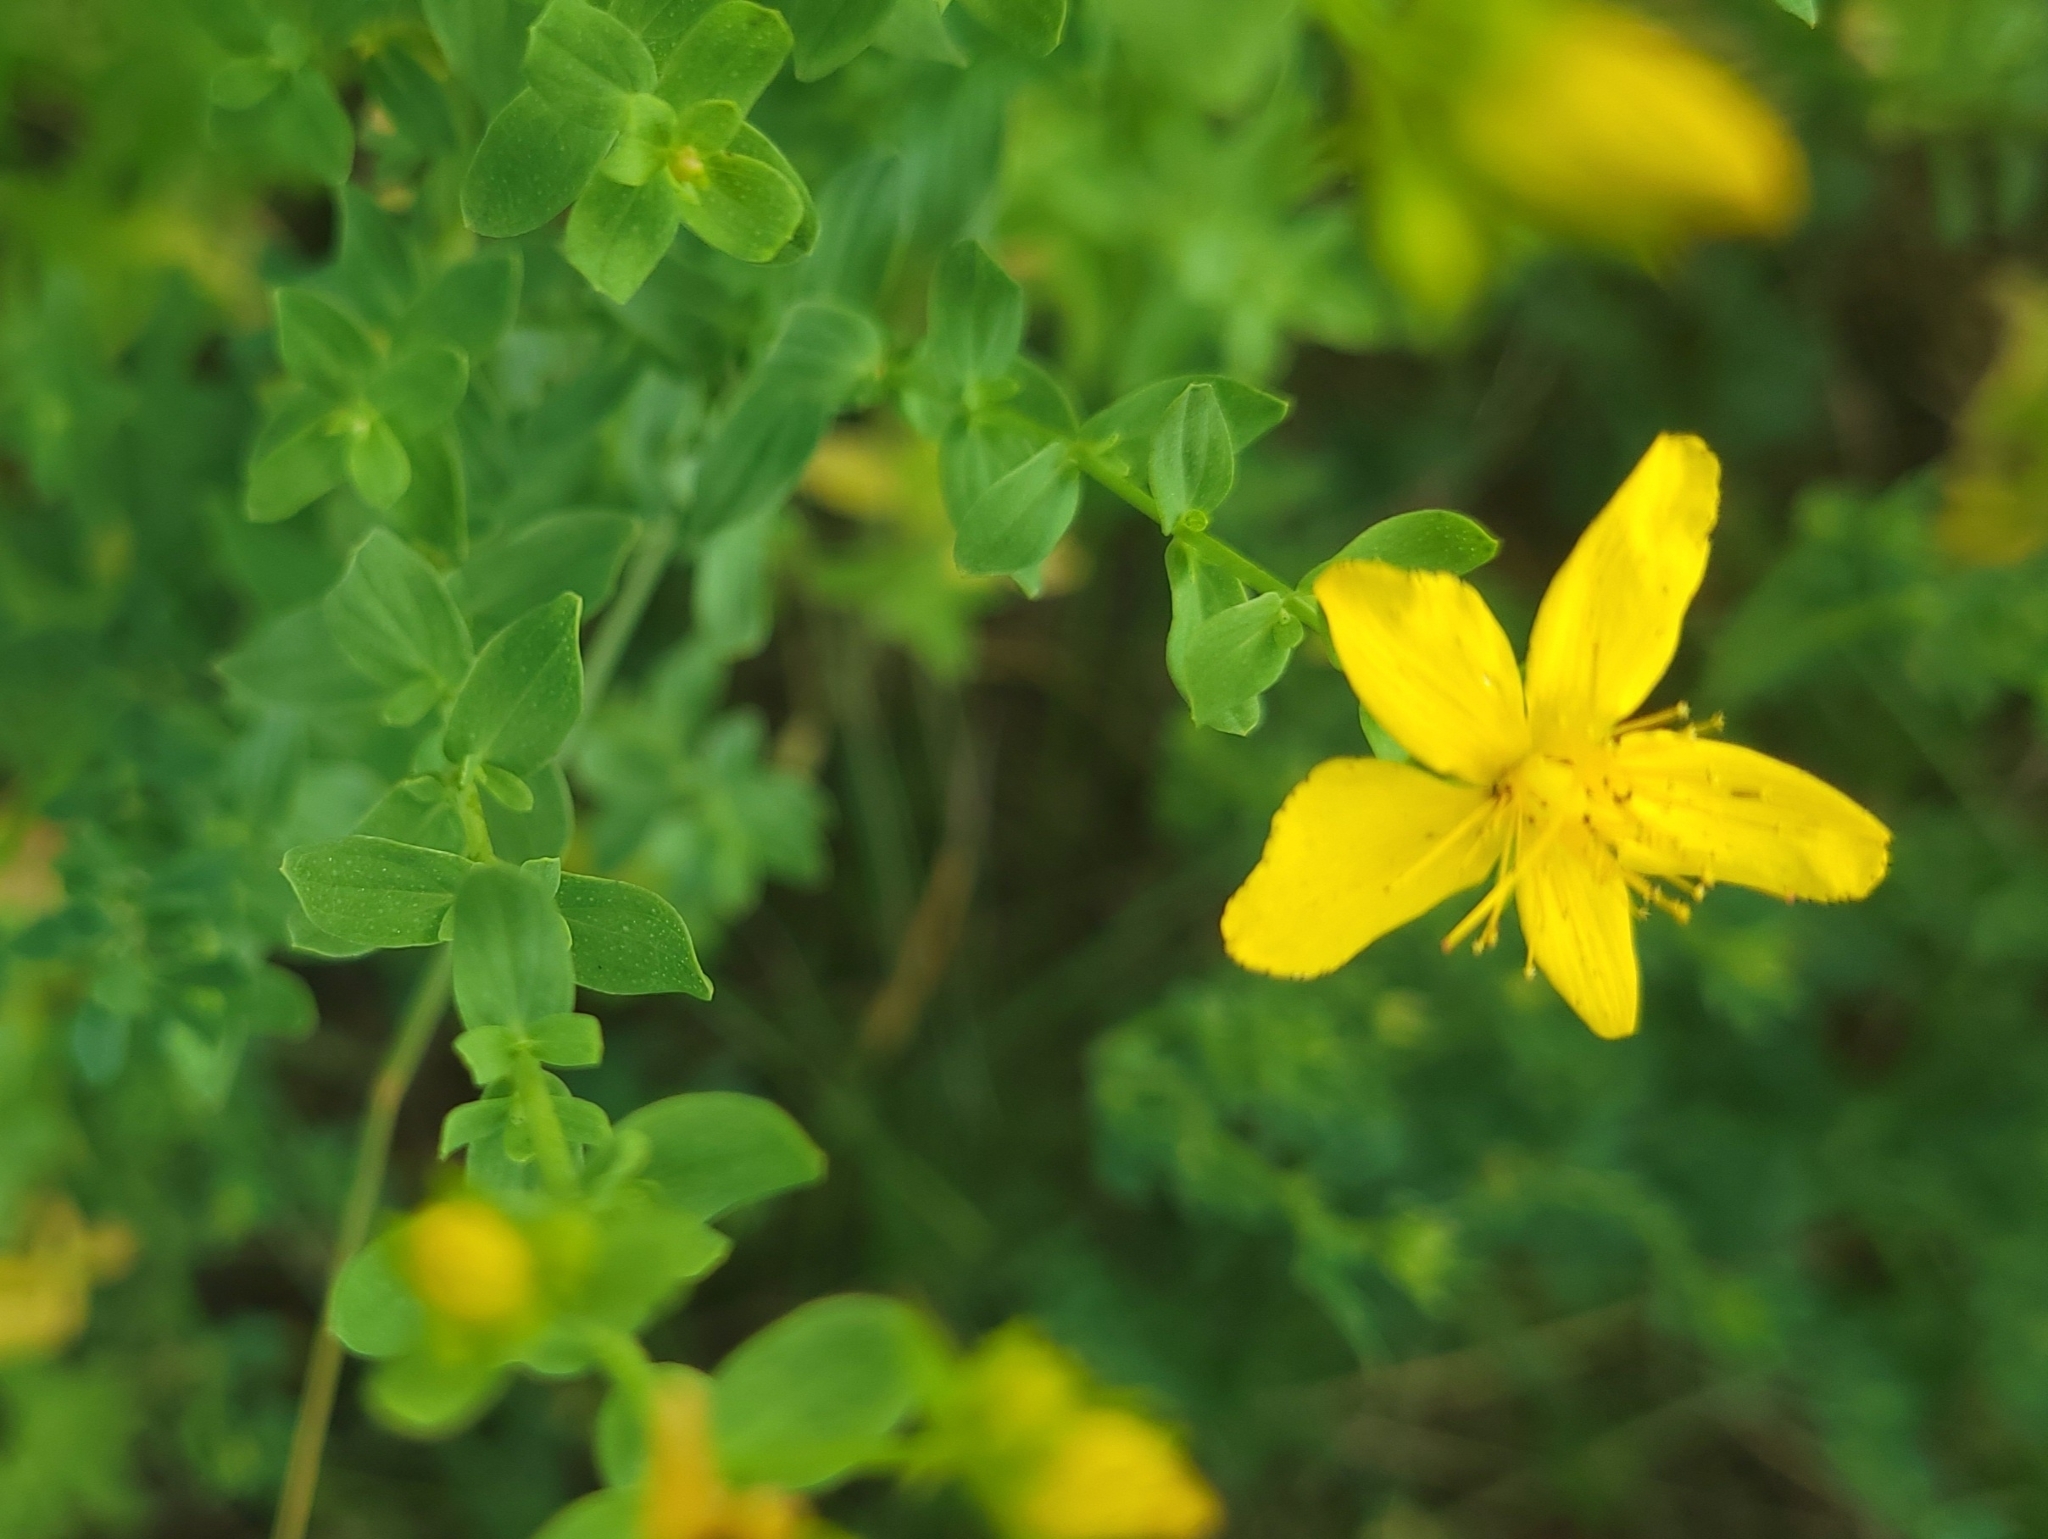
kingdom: Plantae
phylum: Tracheophyta
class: Magnoliopsida
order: Malpighiales
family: Hypericaceae
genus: Hypericum
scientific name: Hypericum perforatum
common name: Common st. johnswort
